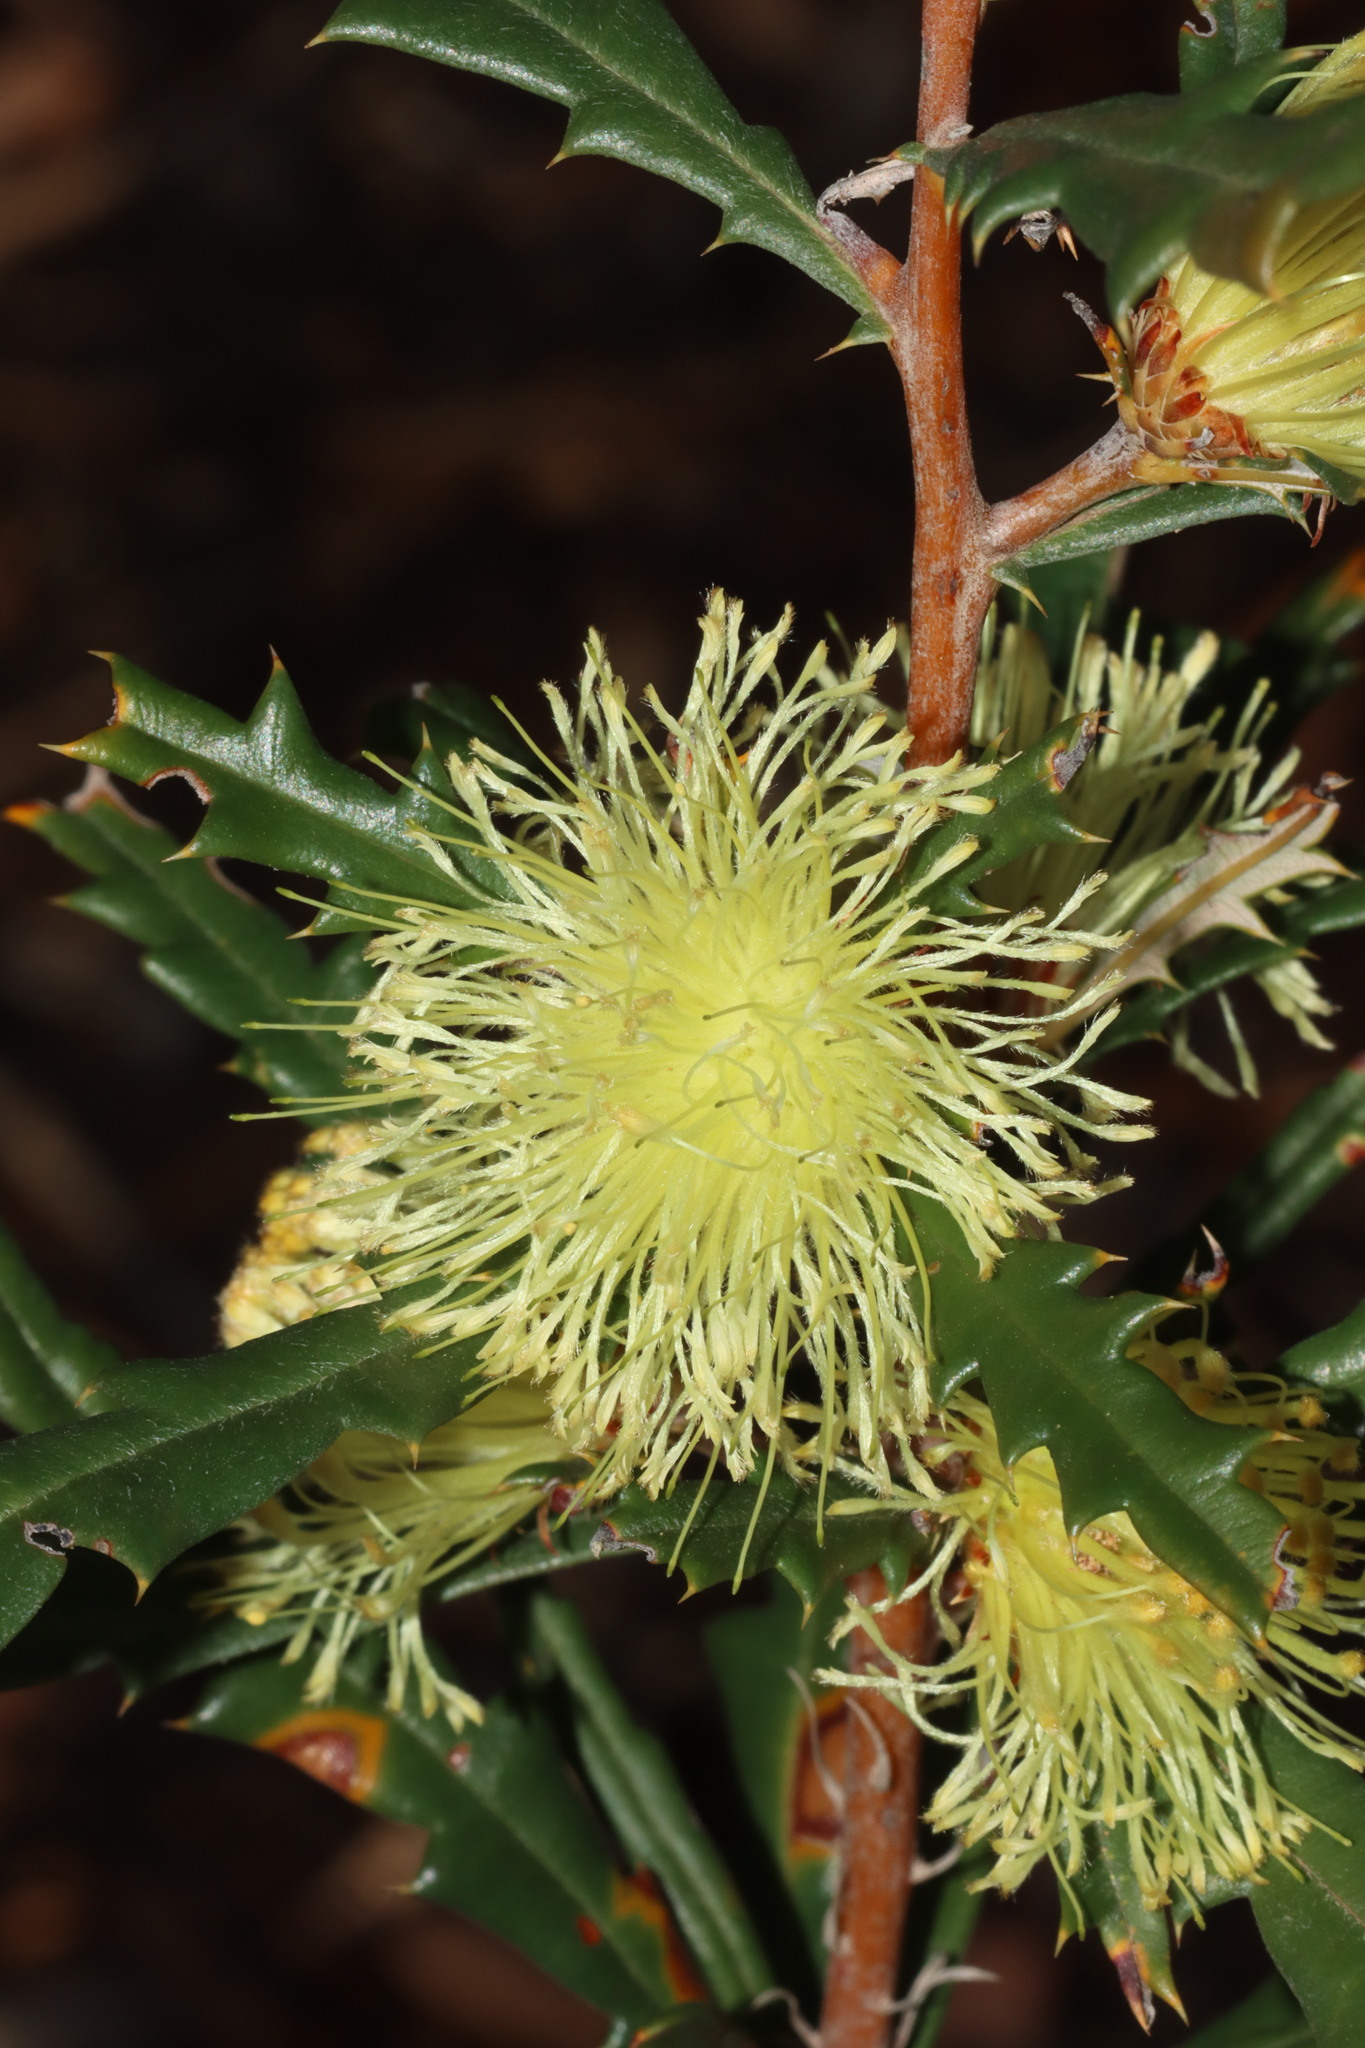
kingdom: Plantae
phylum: Tracheophyta
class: Magnoliopsida
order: Proteales
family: Proteaceae
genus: Banksia
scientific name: Banksia squarrosa
